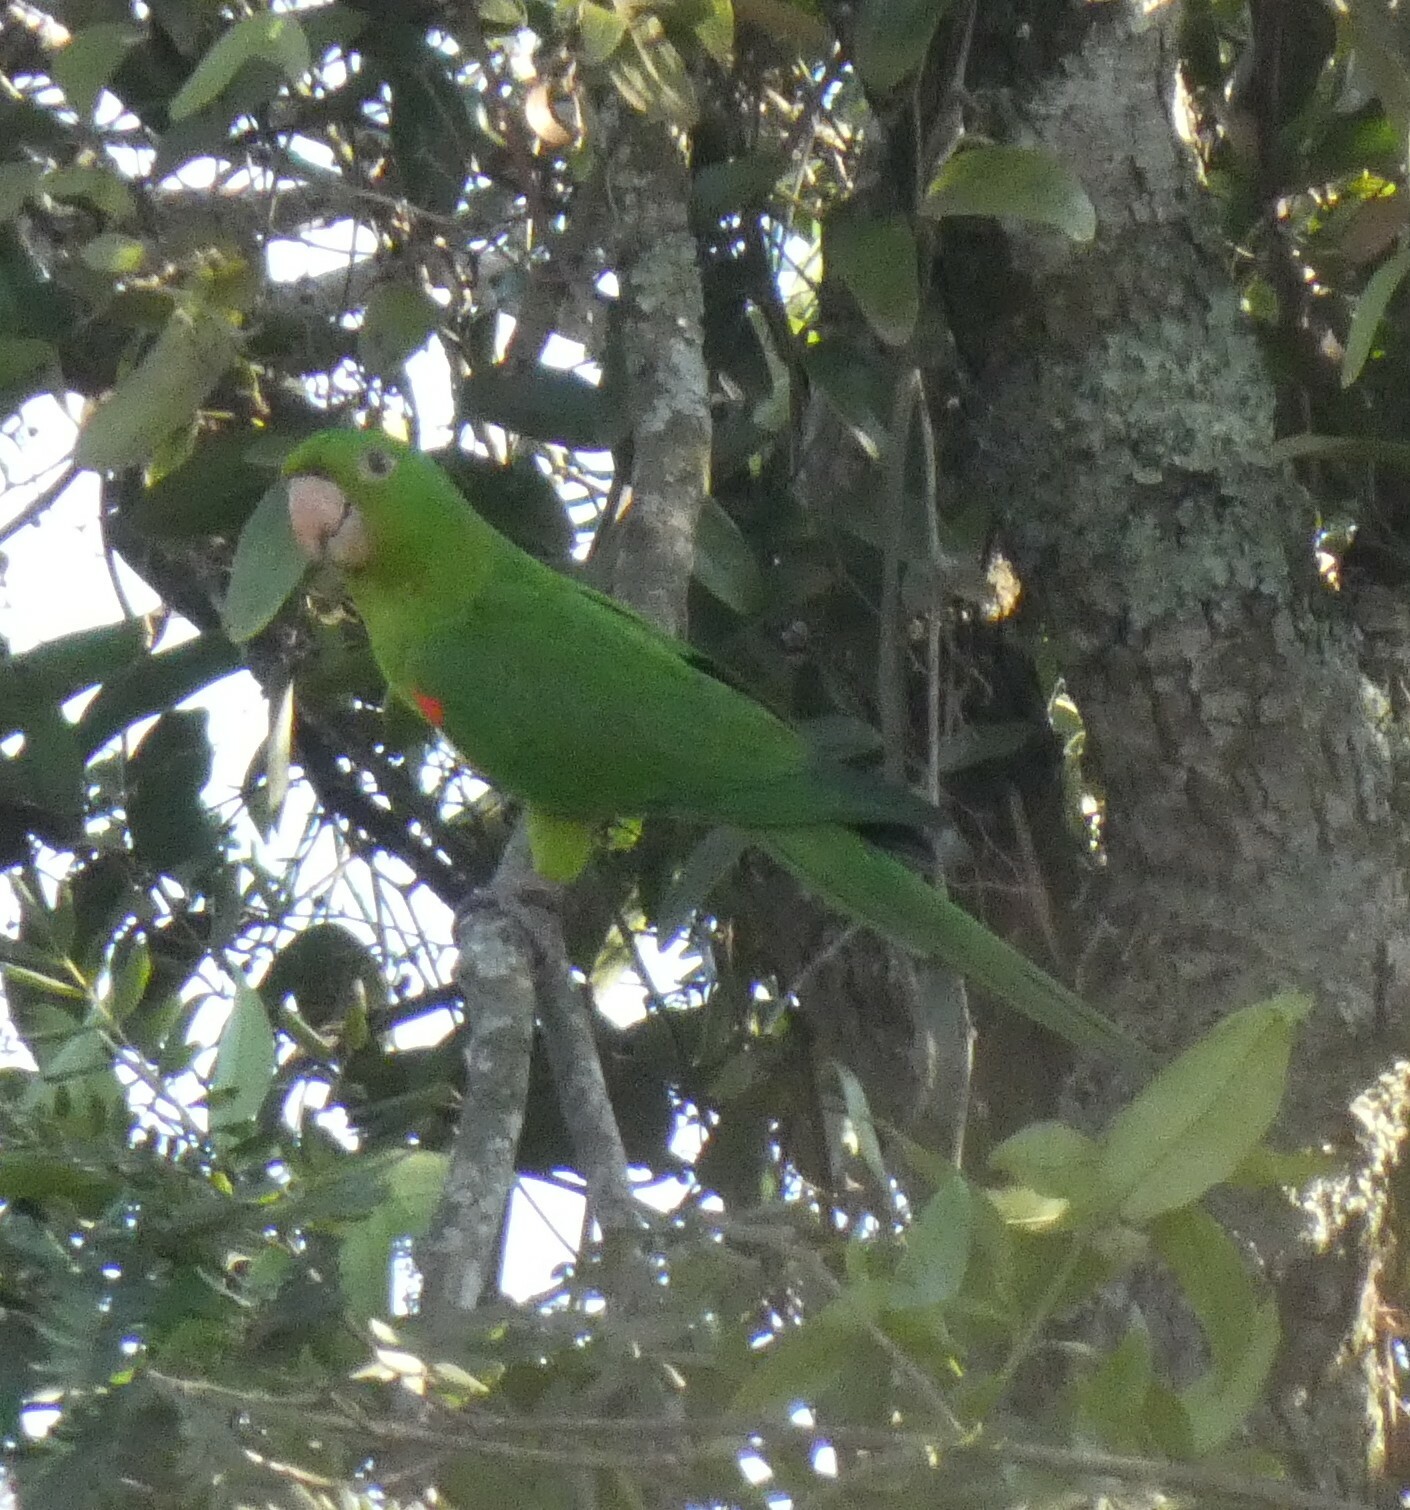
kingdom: Animalia
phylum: Chordata
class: Aves
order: Psittaciformes
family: Psittacidae
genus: Aratinga
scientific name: Aratinga leucophthalma
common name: White-eyed parakeet
